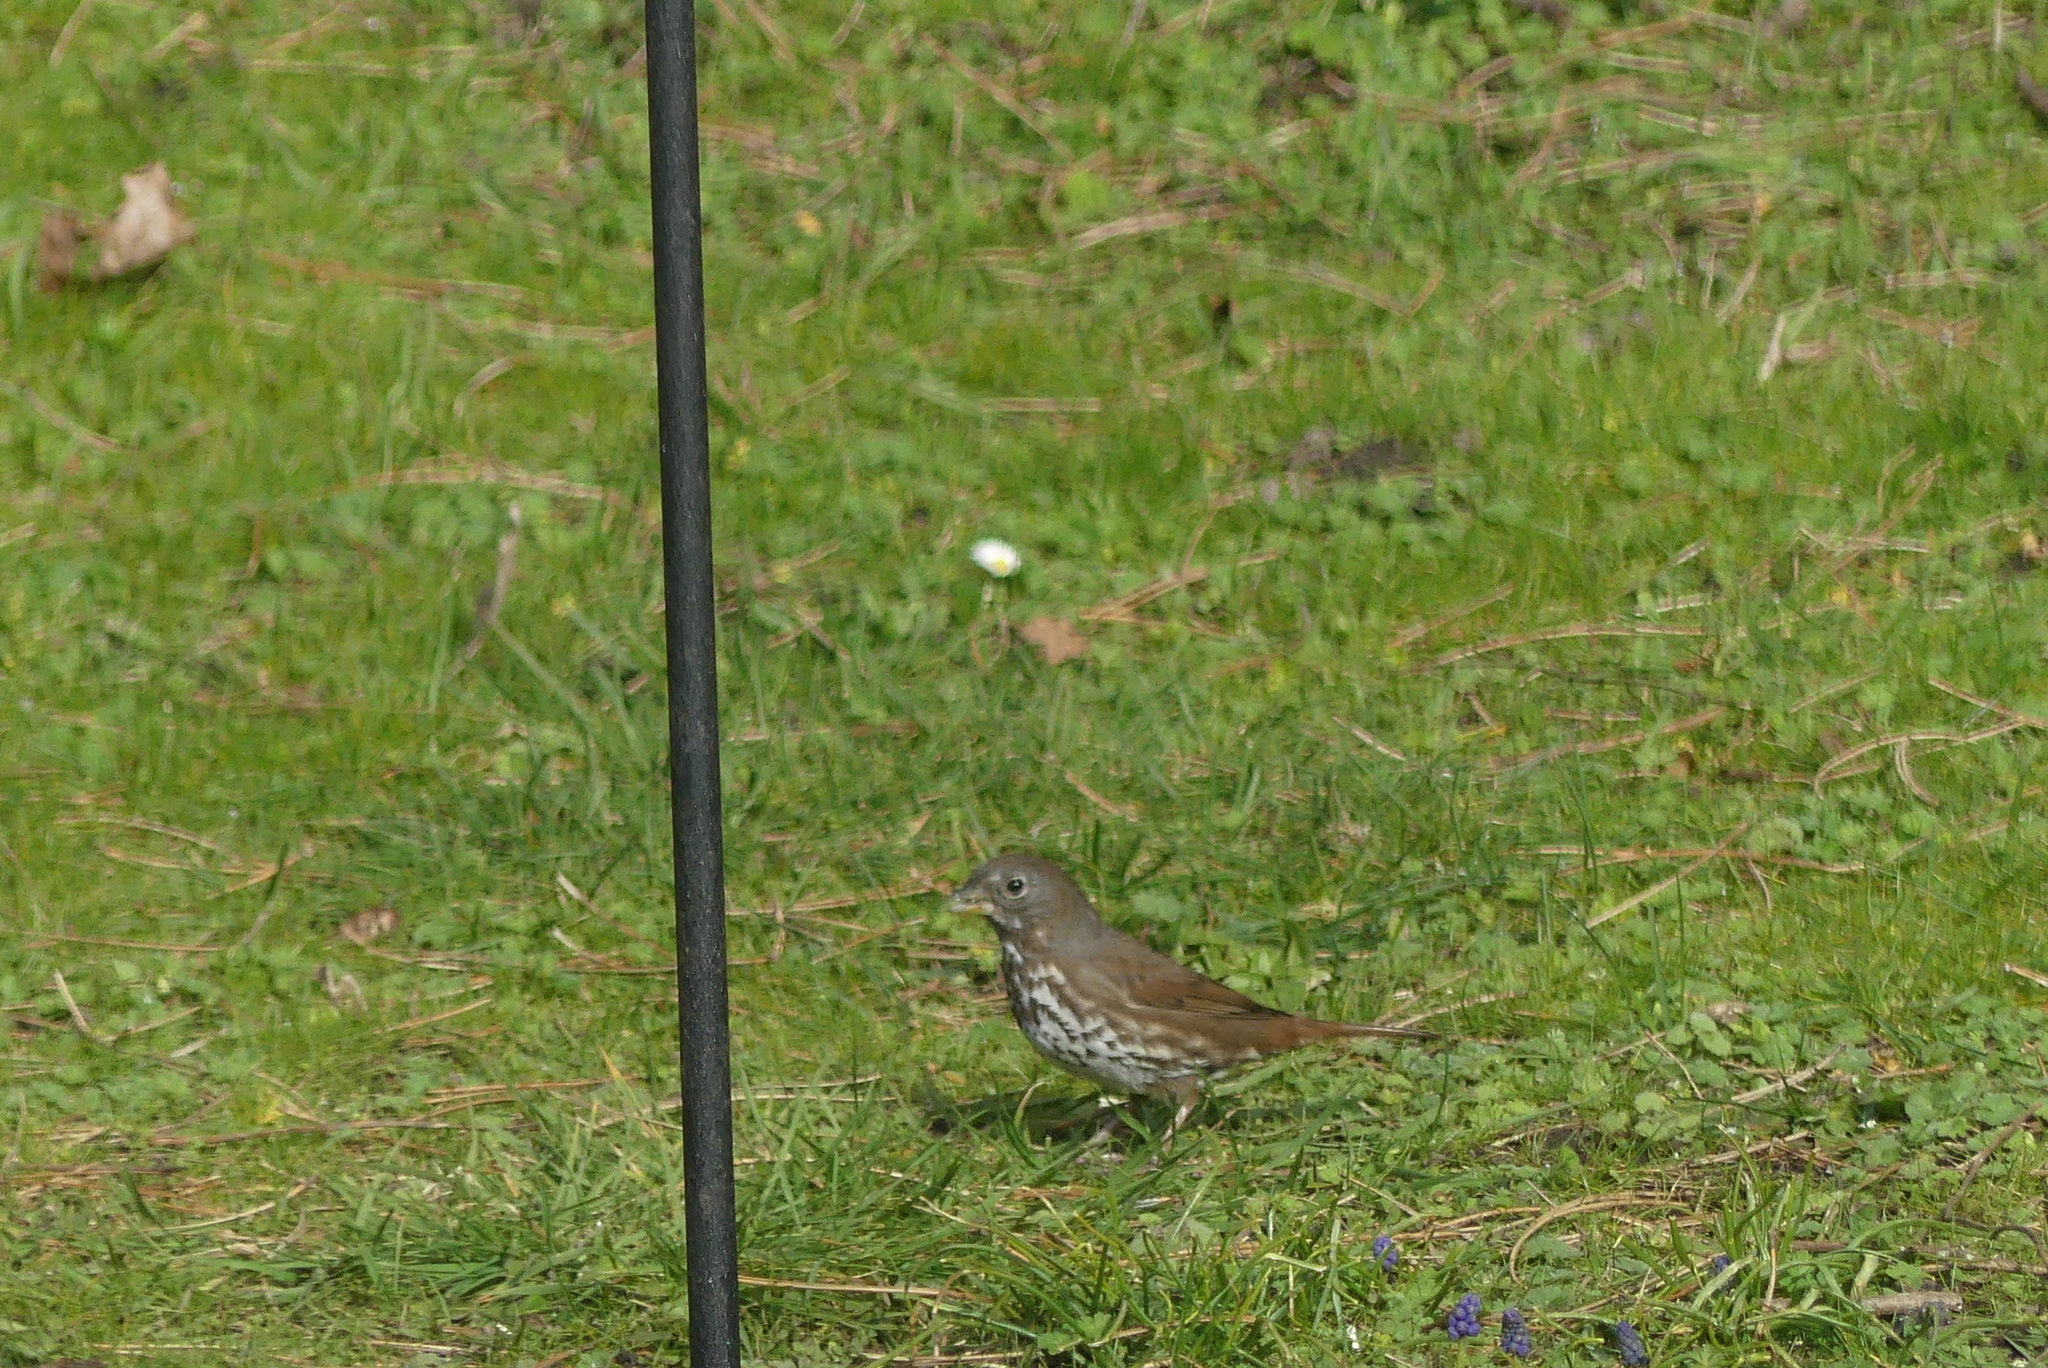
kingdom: Animalia
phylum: Chordata
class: Aves
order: Passeriformes
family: Passerellidae
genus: Passerella
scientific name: Passerella iliaca
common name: Fox sparrow
